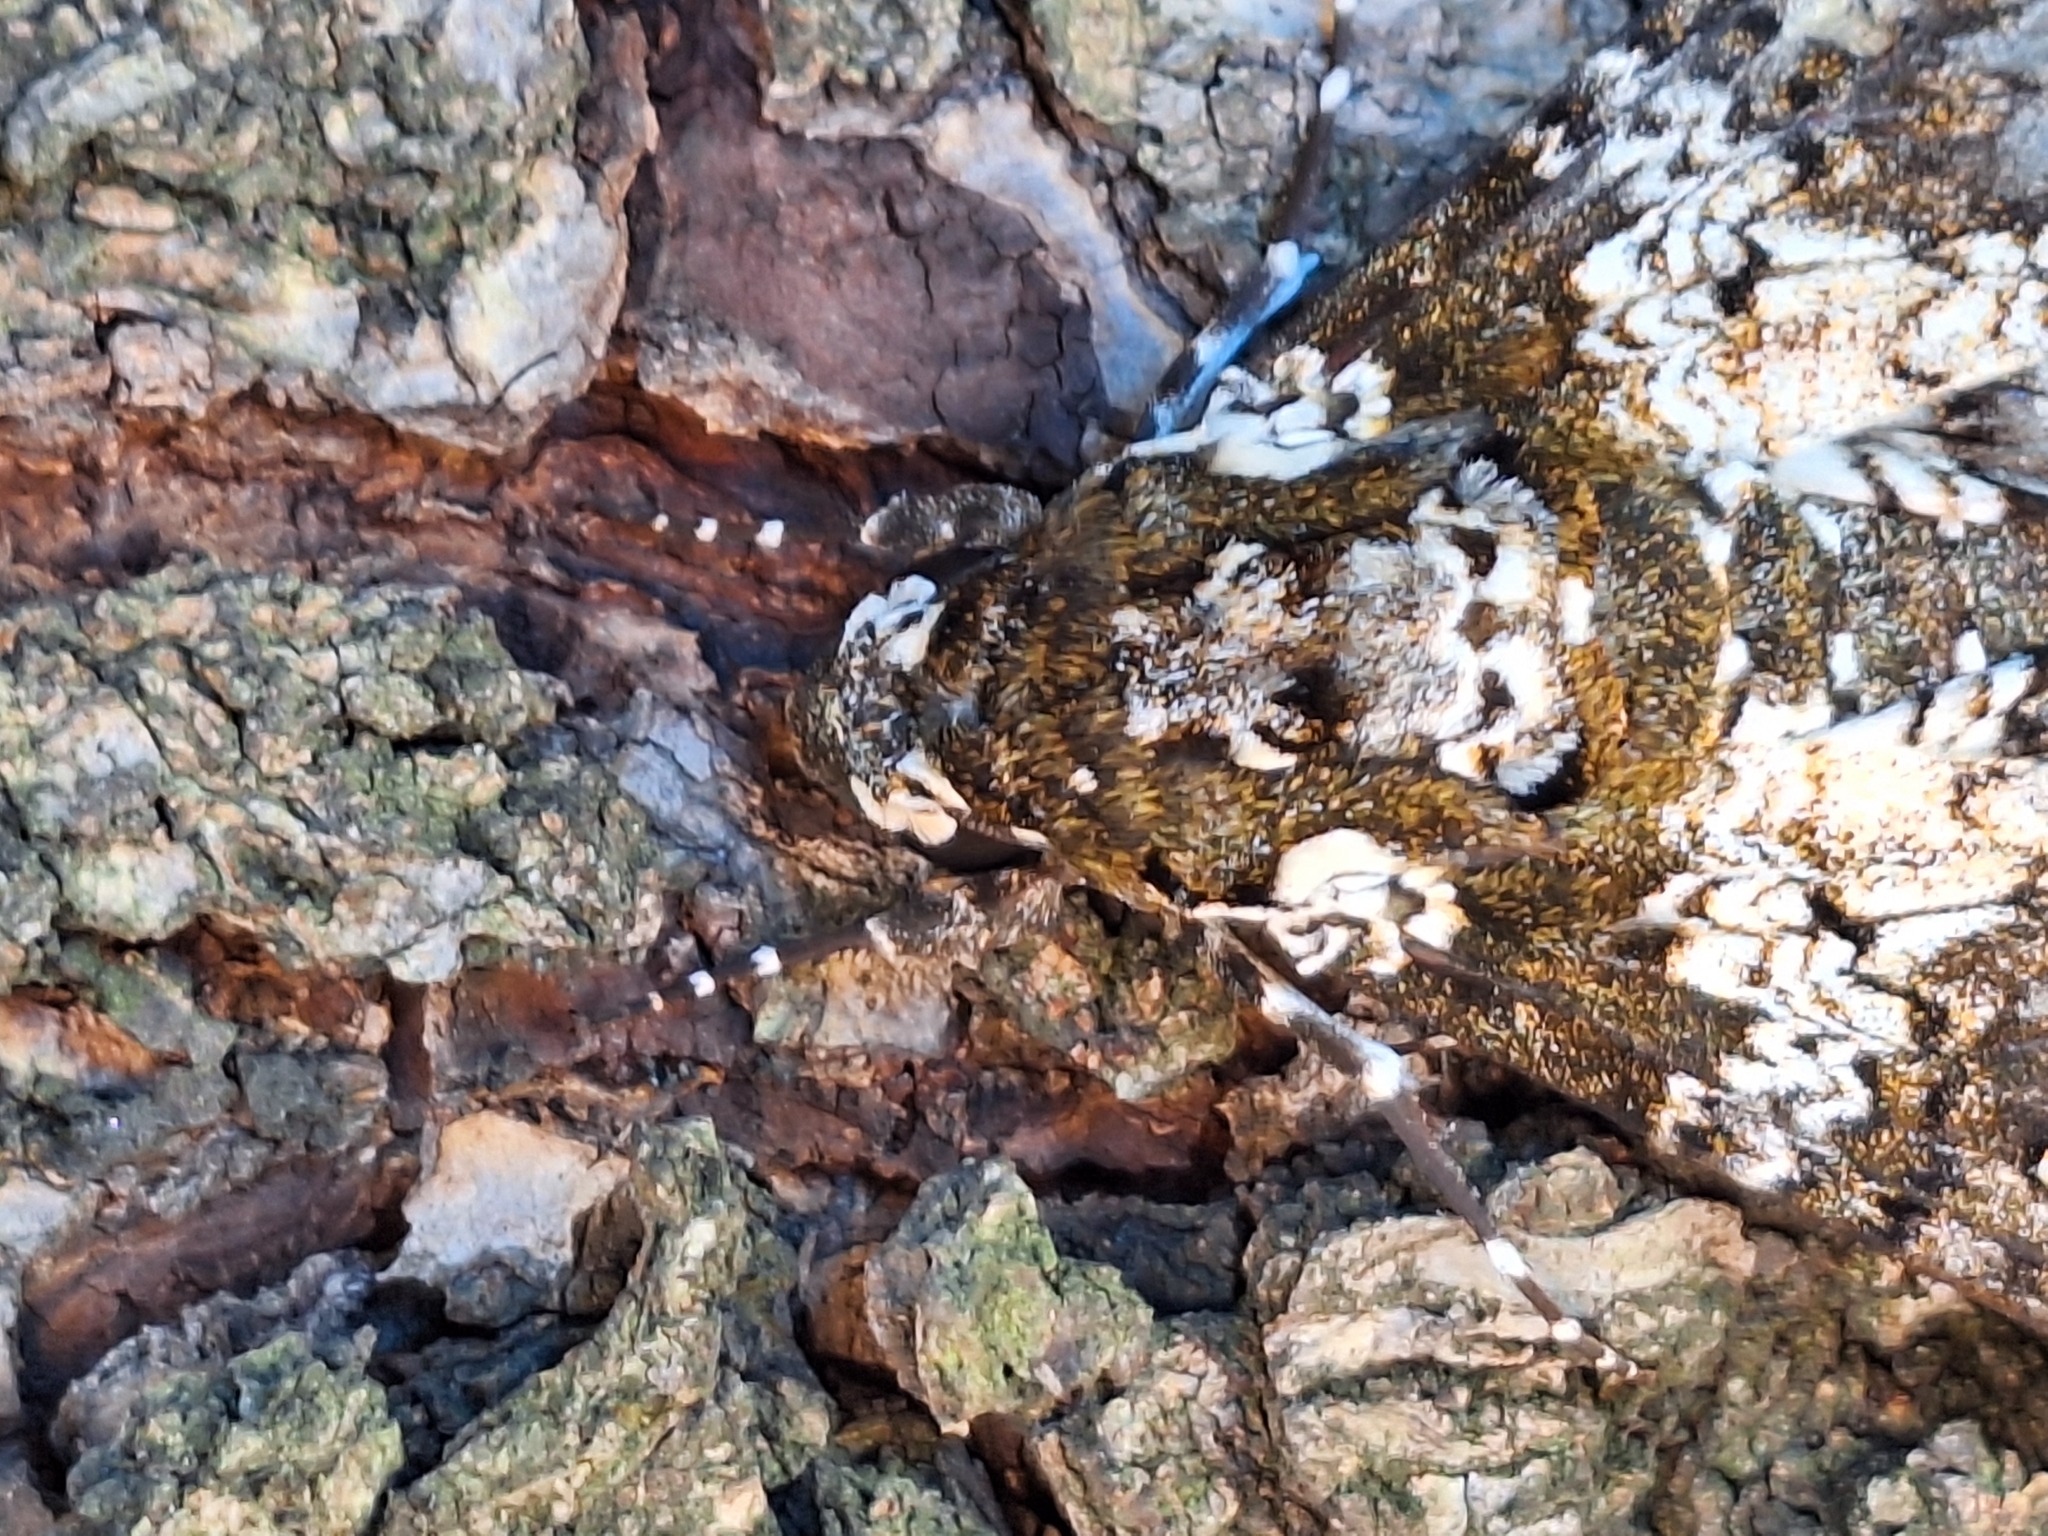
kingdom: Animalia
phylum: Arthropoda
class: Insecta
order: Lepidoptera
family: Sphingidae
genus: Manduca
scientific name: Manduca rustica
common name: Rustic sphinx
